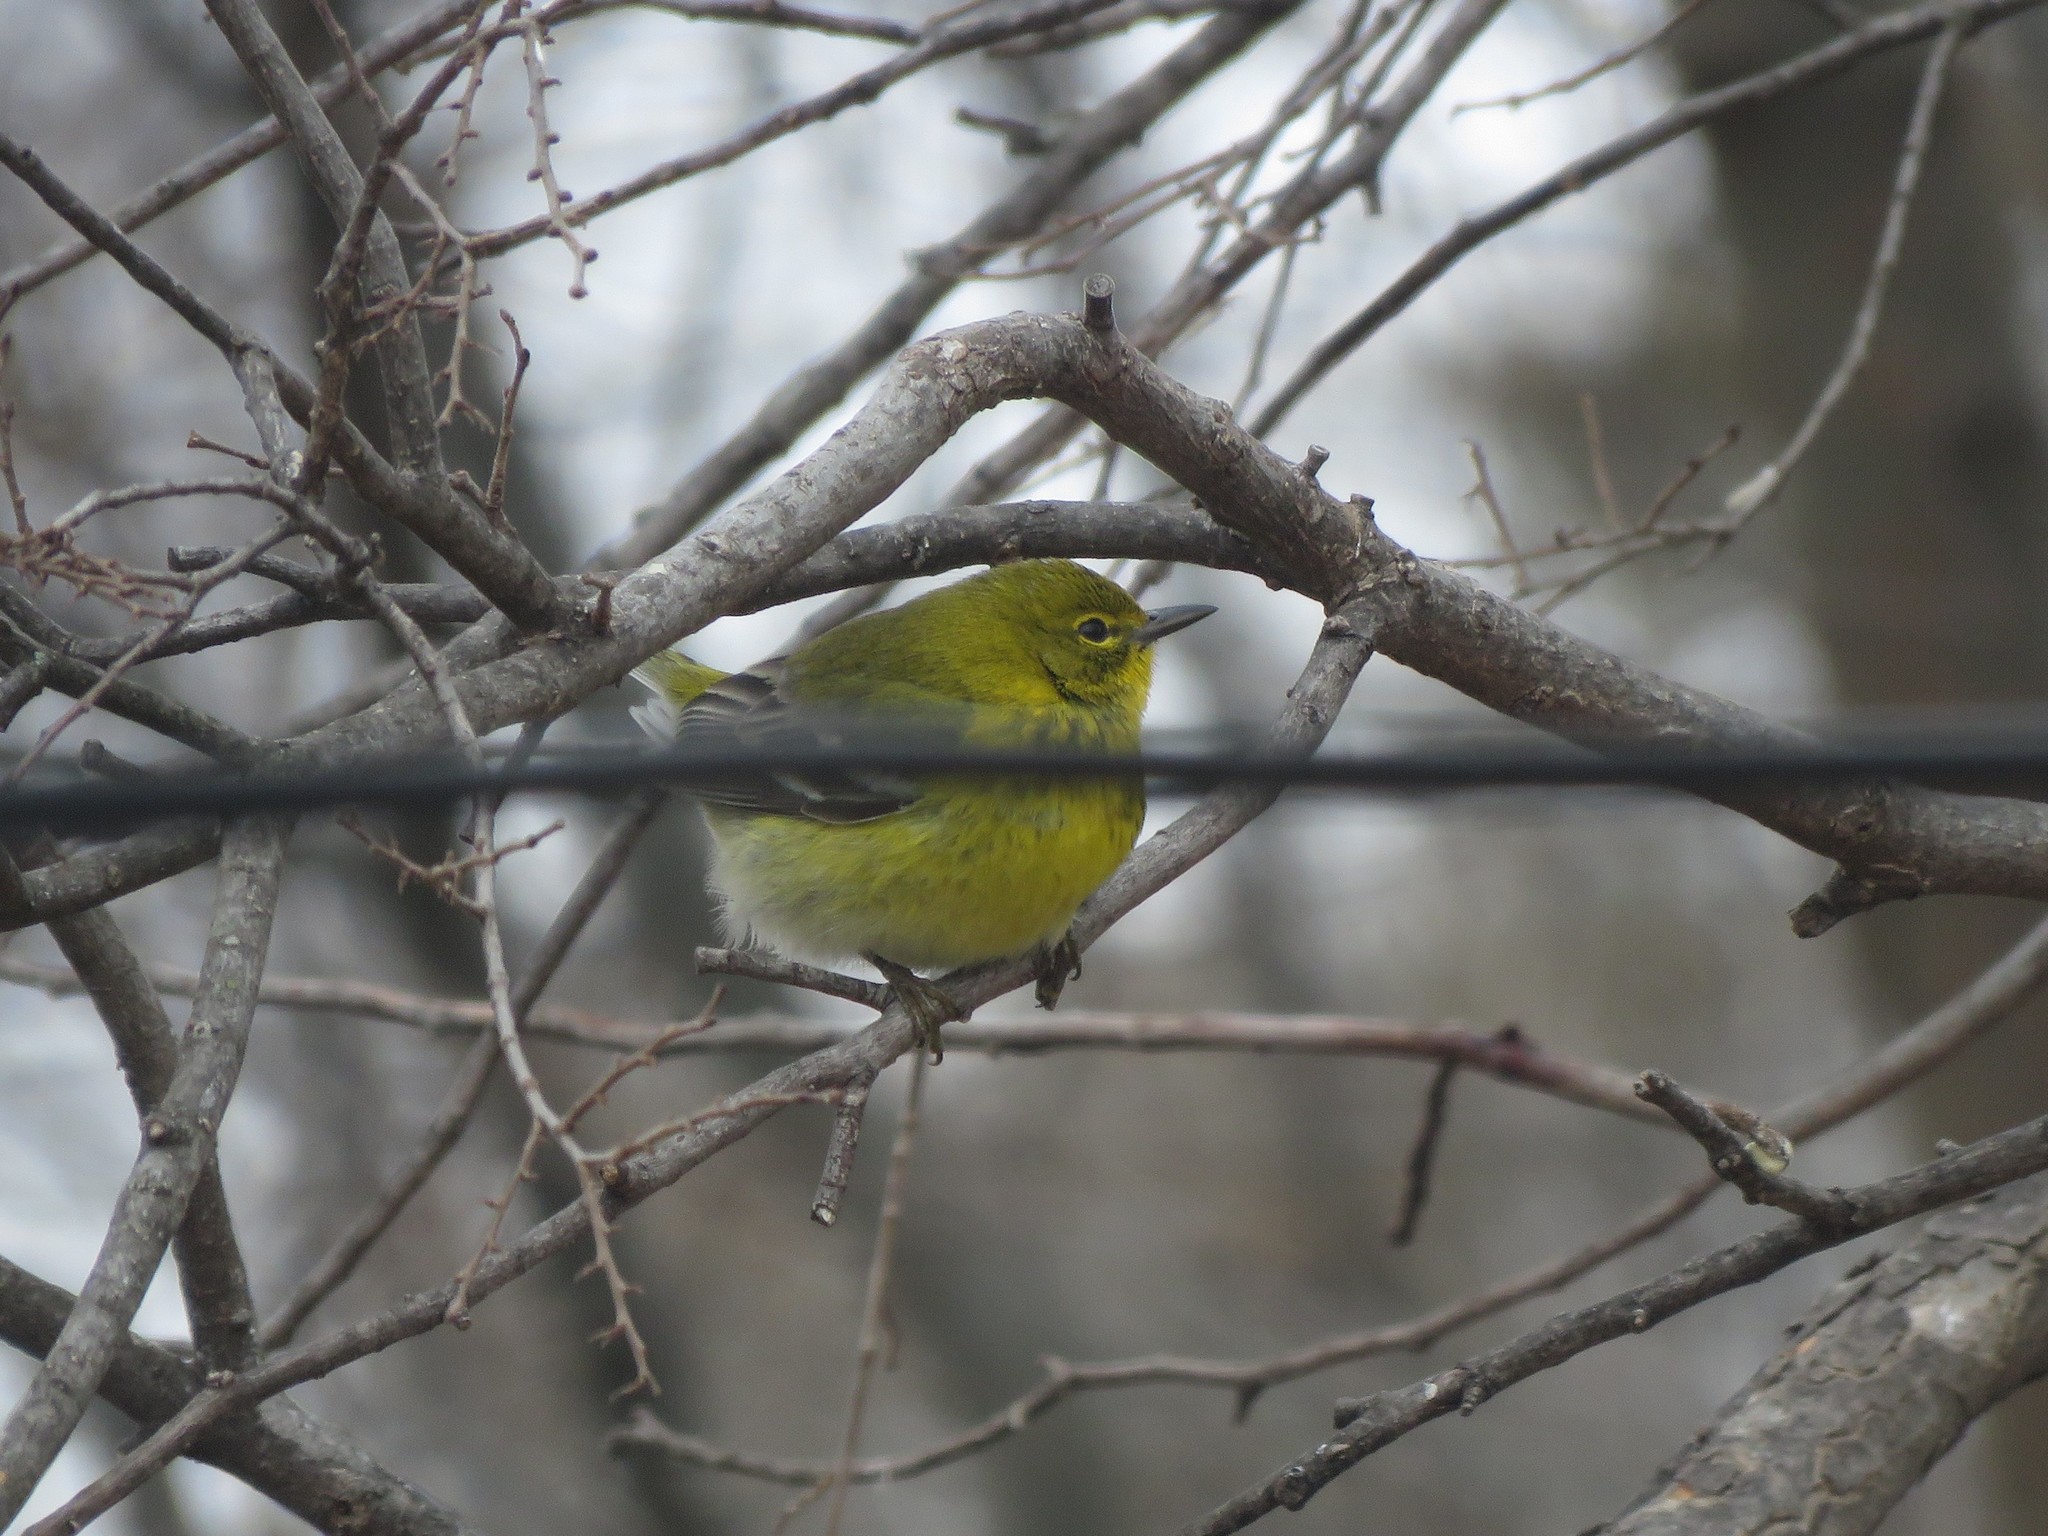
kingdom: Animalia
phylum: Chordata
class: Aves
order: Passeriformes
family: Parulidae
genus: Setophaga
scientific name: Setophaga pinus
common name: Pine warbler
